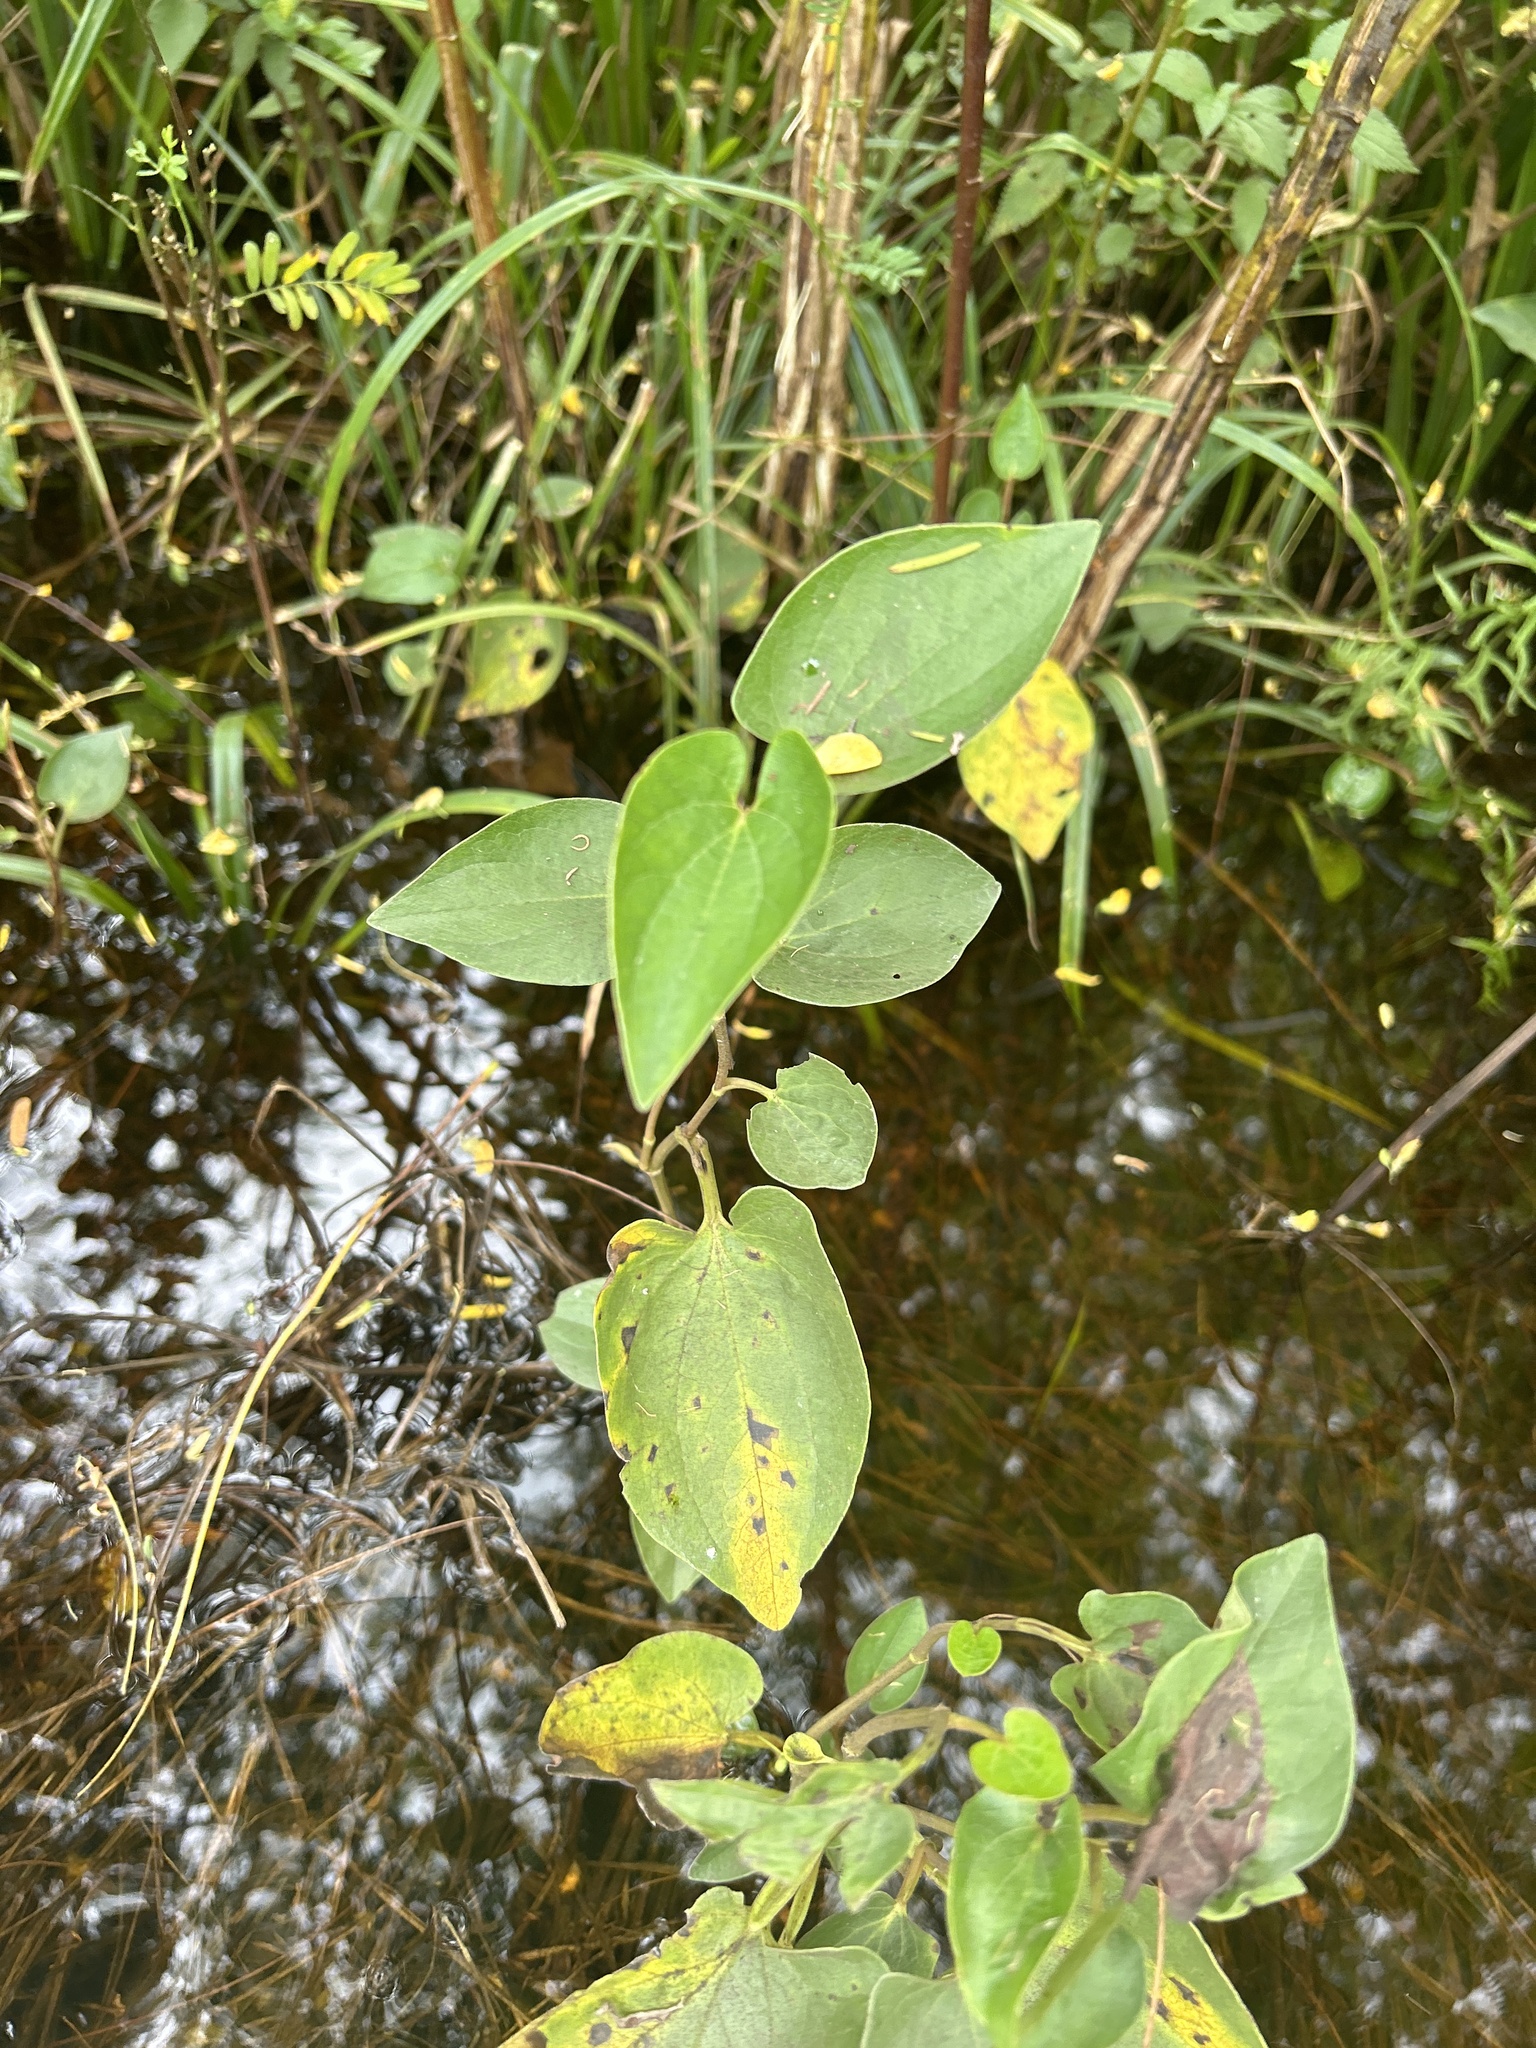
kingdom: Plantae
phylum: Tracheophyta
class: Magnoliopsida
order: Piperales
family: Saururaceae
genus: Saururus
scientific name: Saururus cernuus
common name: Lizard's-tail
